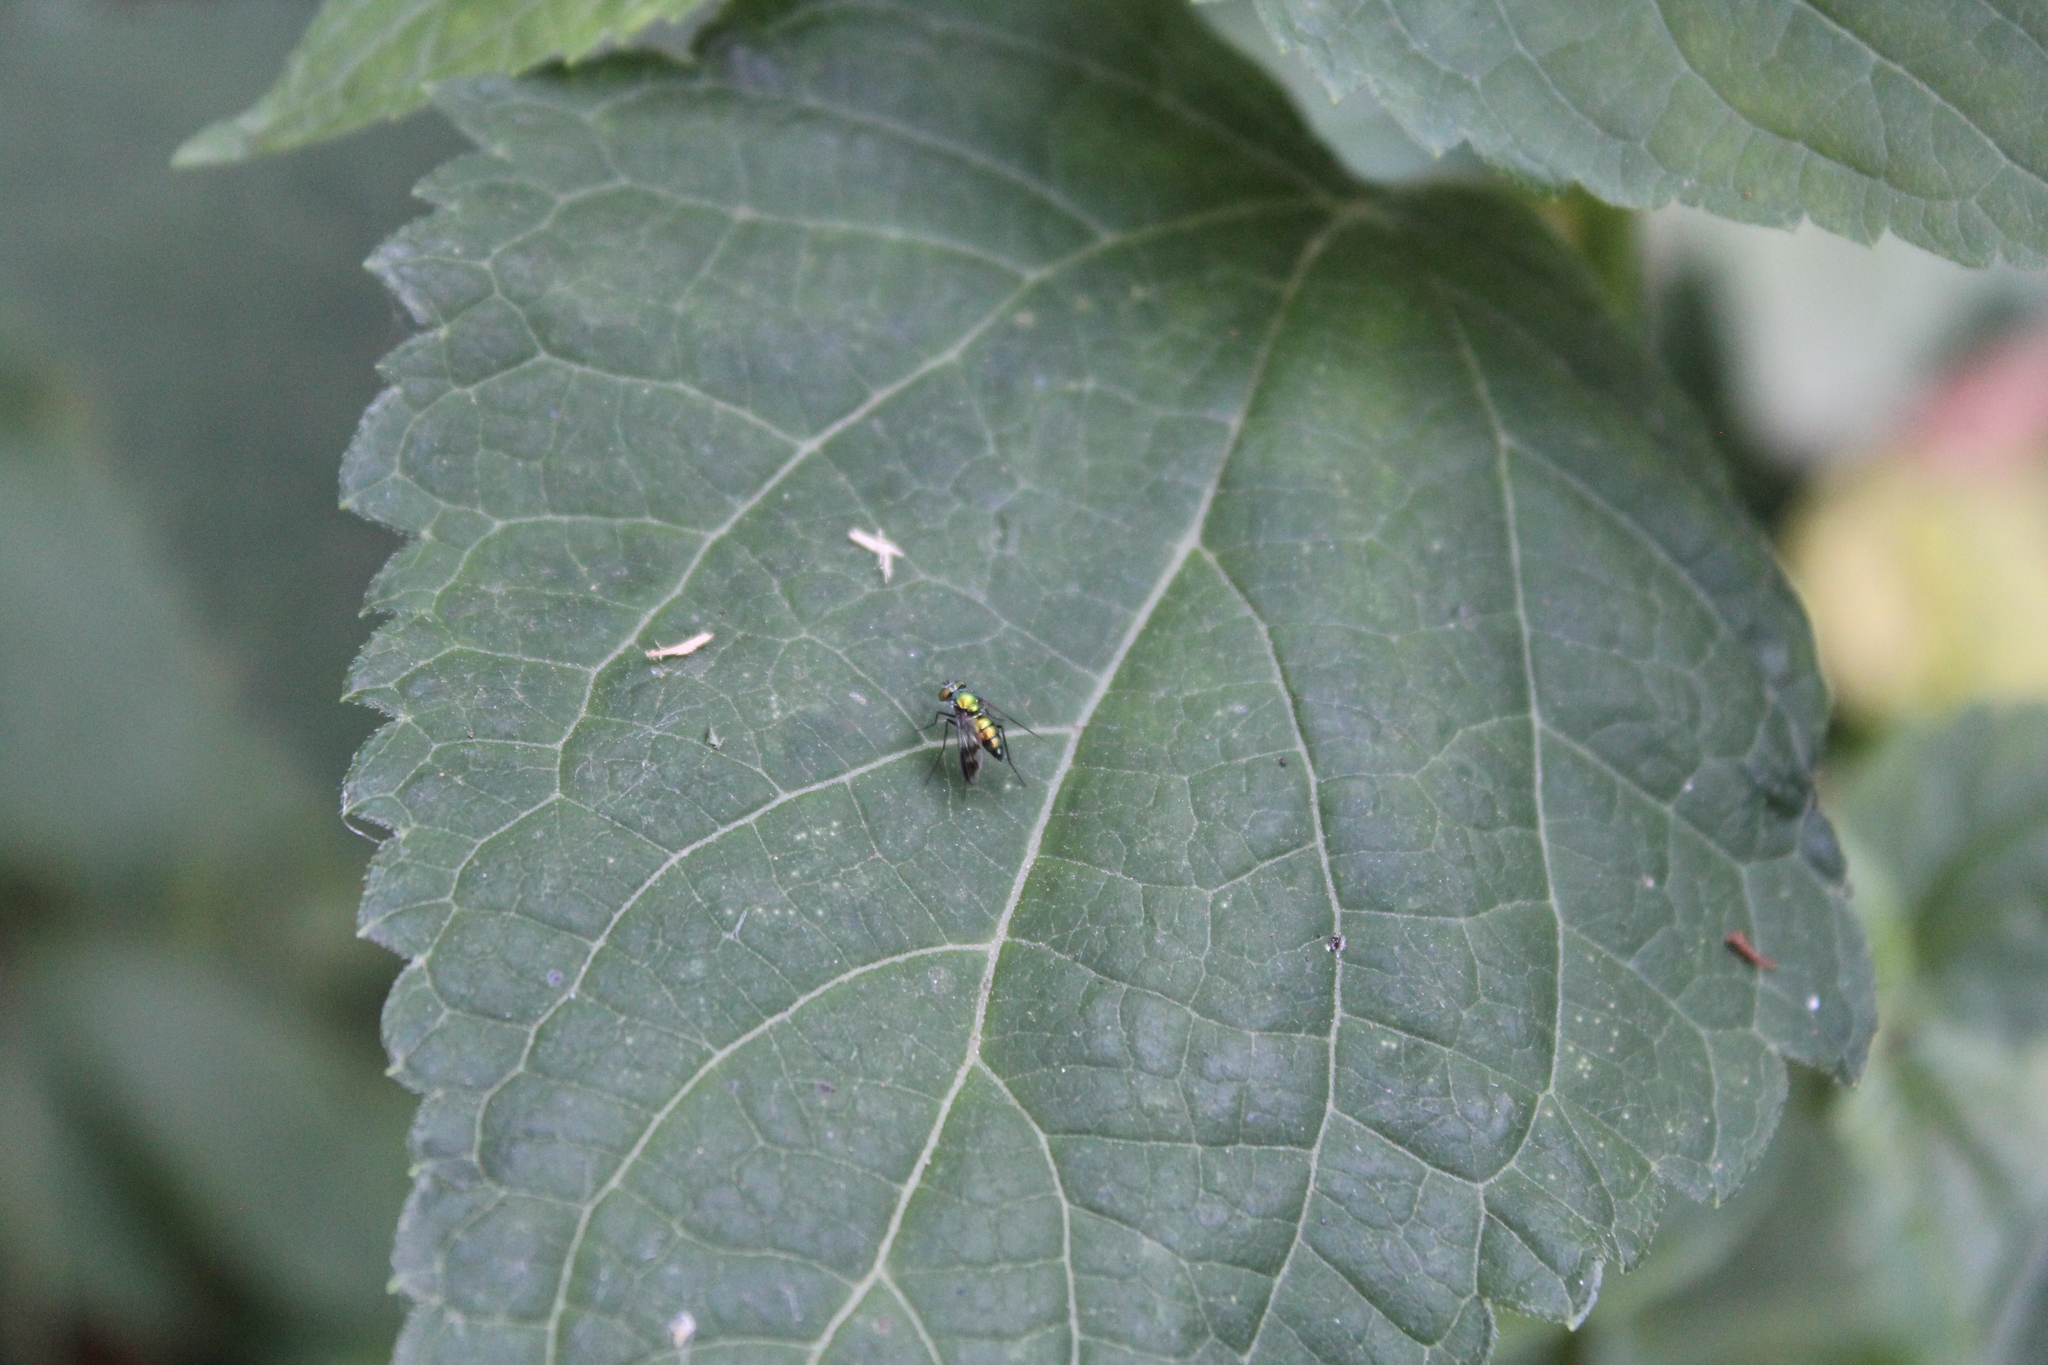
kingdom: Animalia
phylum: Arthropoda
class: Insecta
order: Diptera
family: Dolichopodidae
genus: Condylostylus
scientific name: Condylostylus patibulatus
